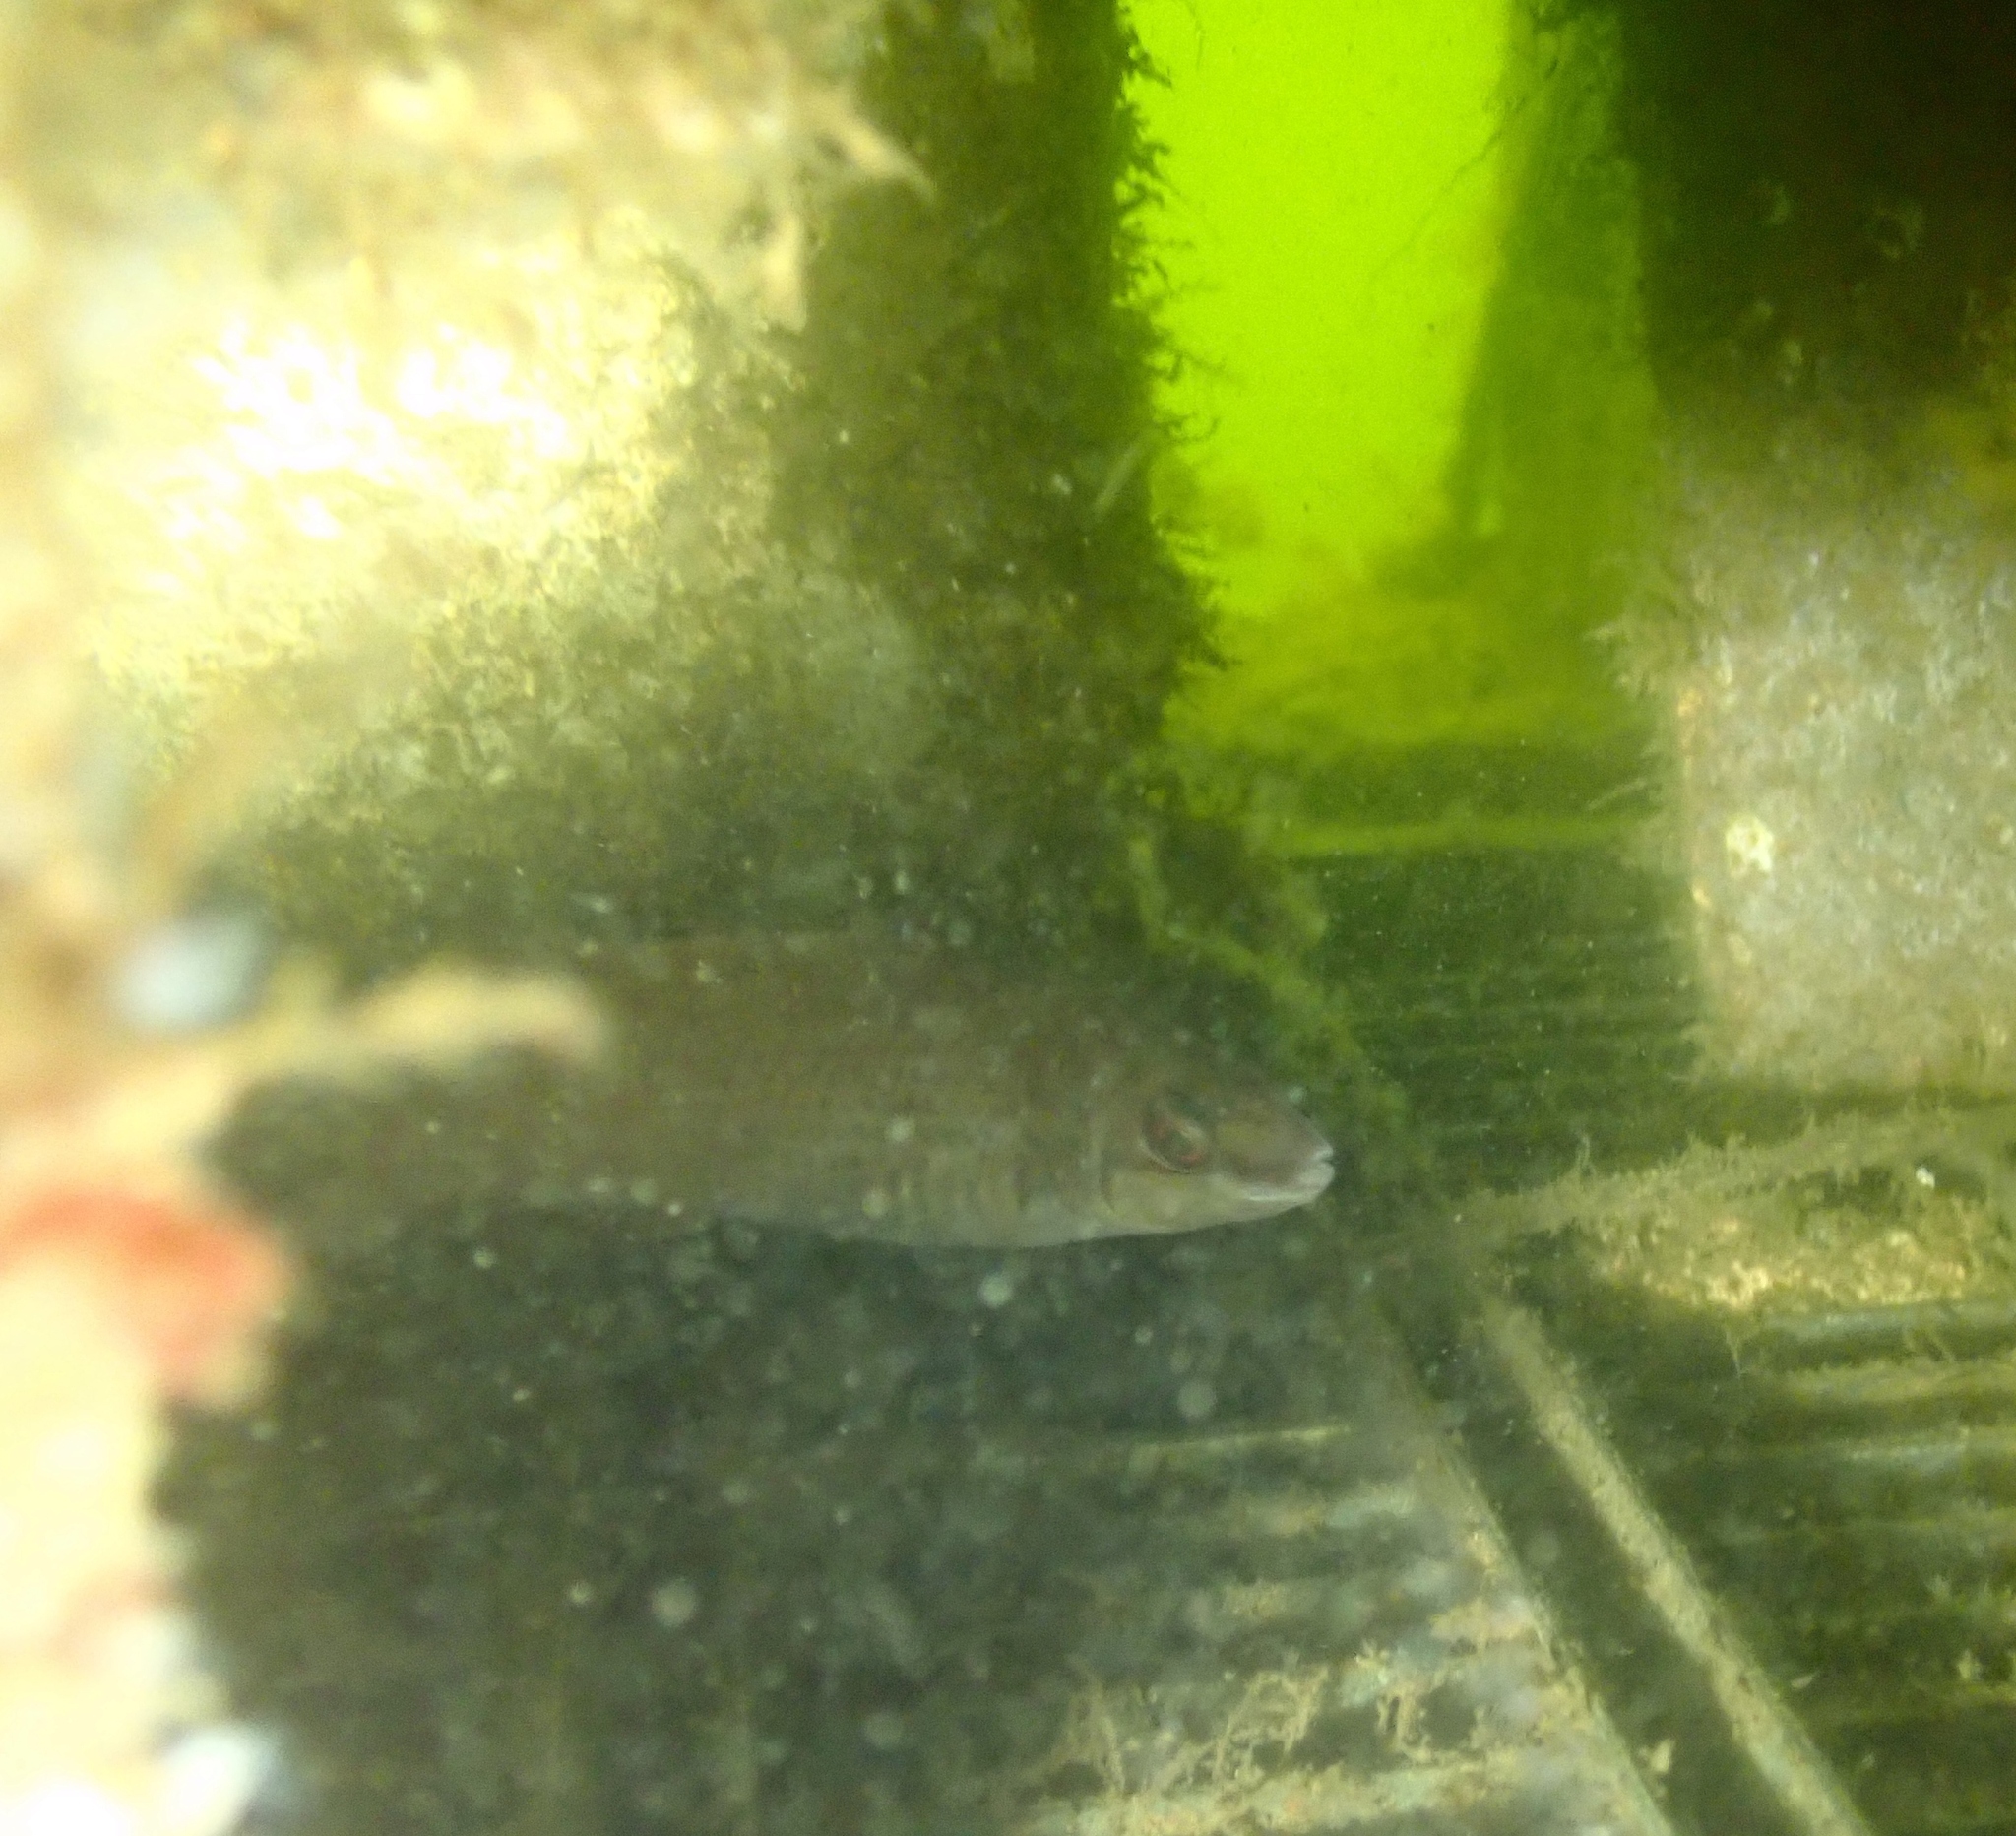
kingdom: Animalia
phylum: Chordata
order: Perciformes
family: Labridae
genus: Ctenolabrus
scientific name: Ctenolabrus rupestris
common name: Goldsinny
